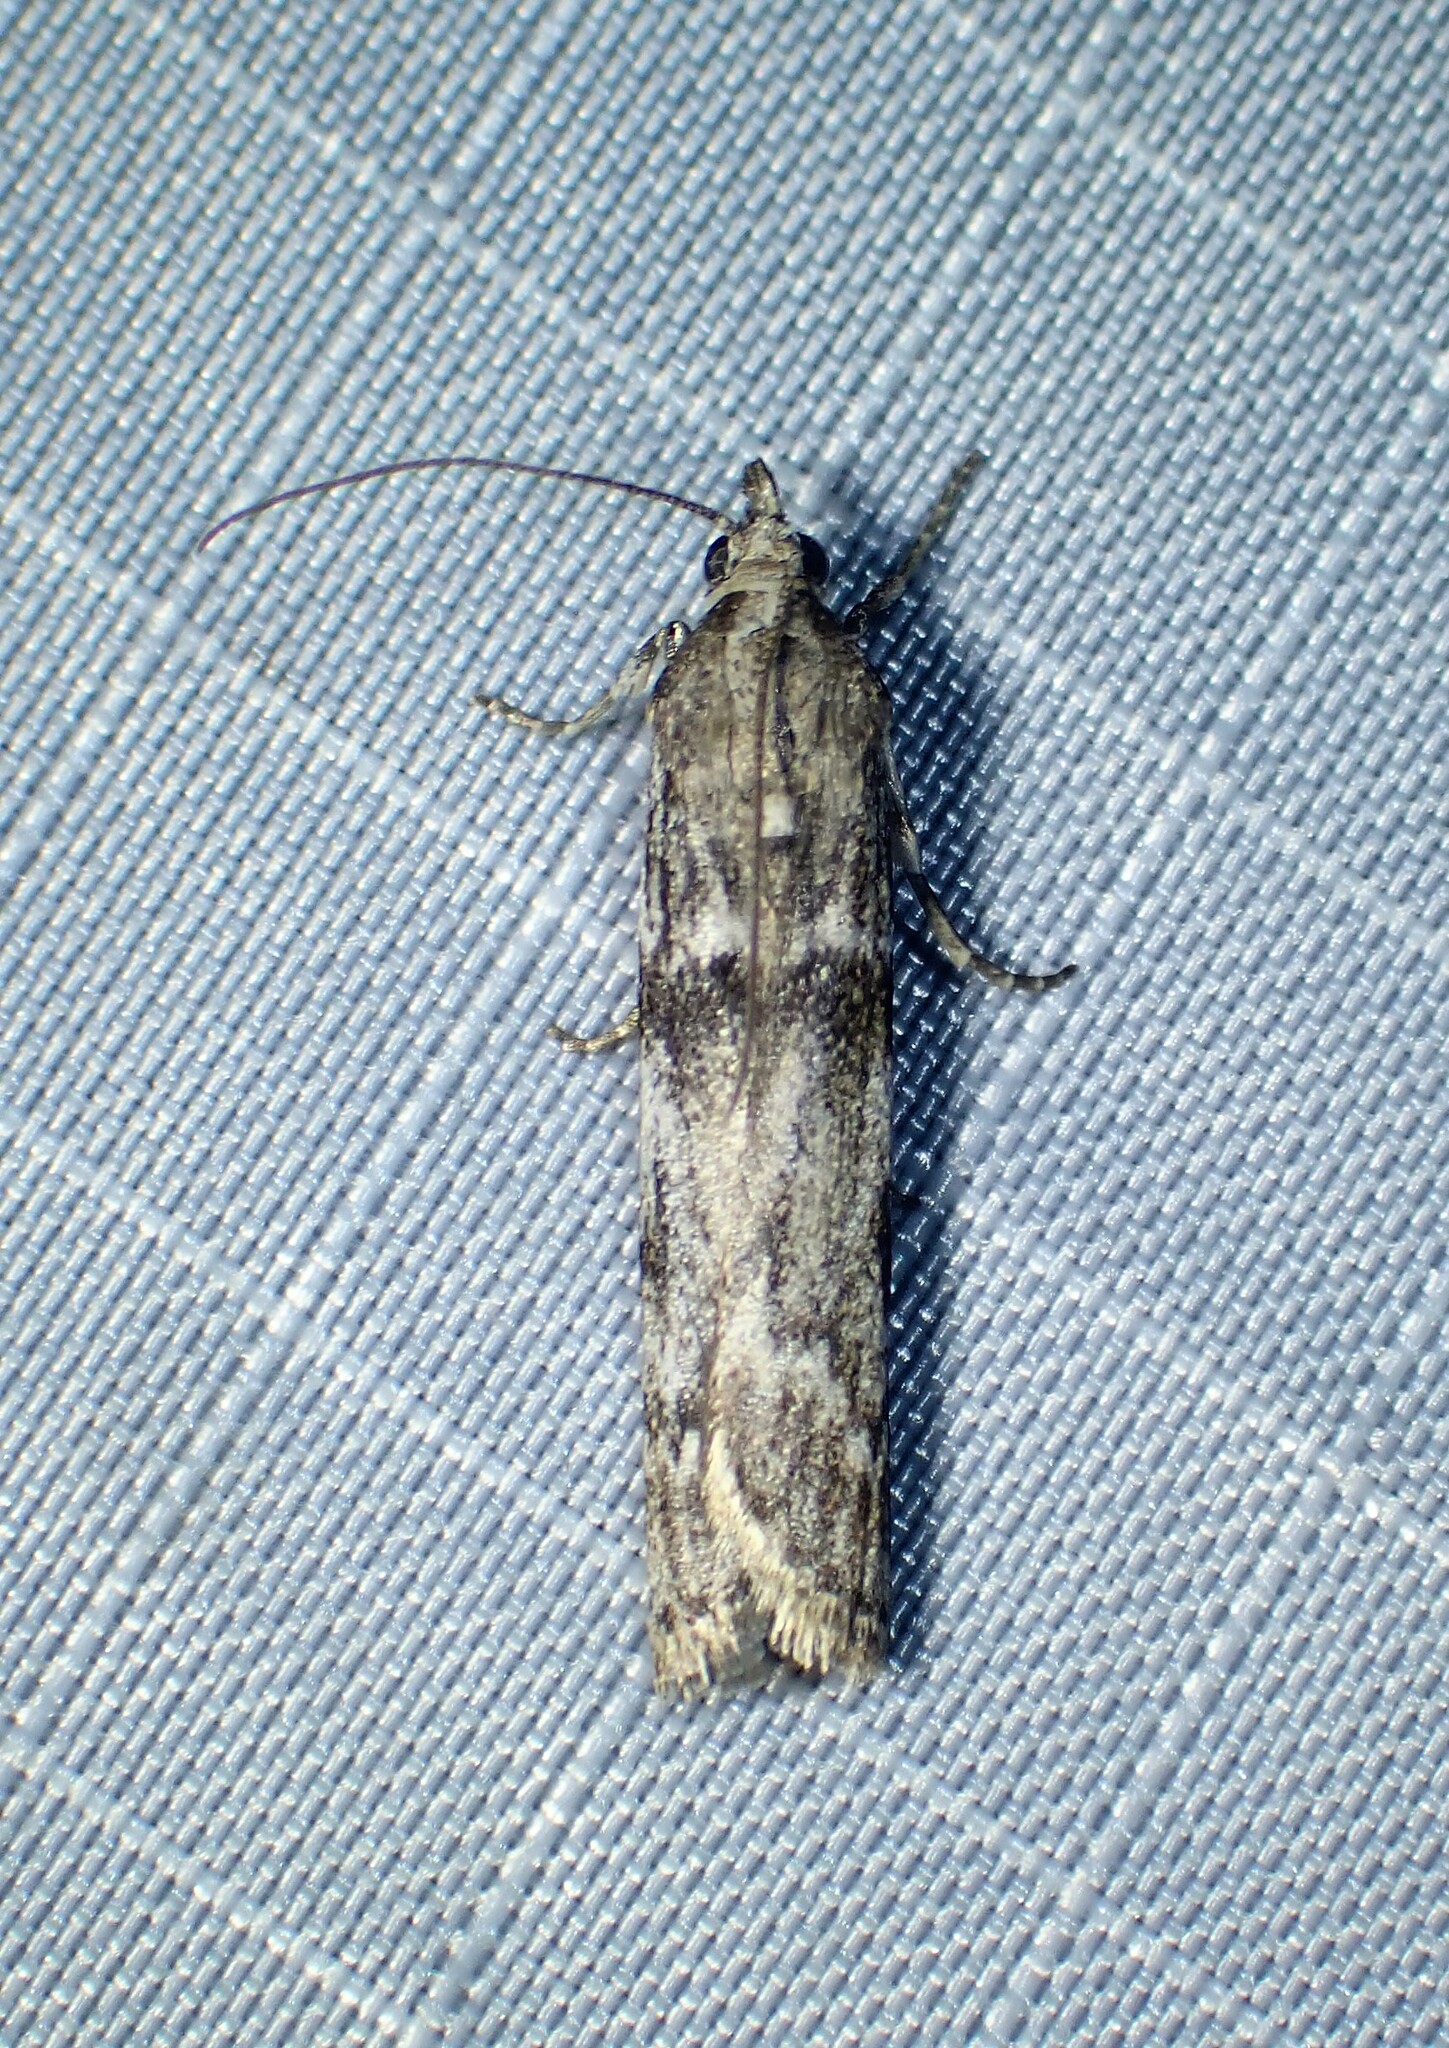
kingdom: Animalia
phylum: Arthropoda
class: Insecta
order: Lepidoptera
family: Pyralidae
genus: Zophodia
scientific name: Zophodia convolutella
